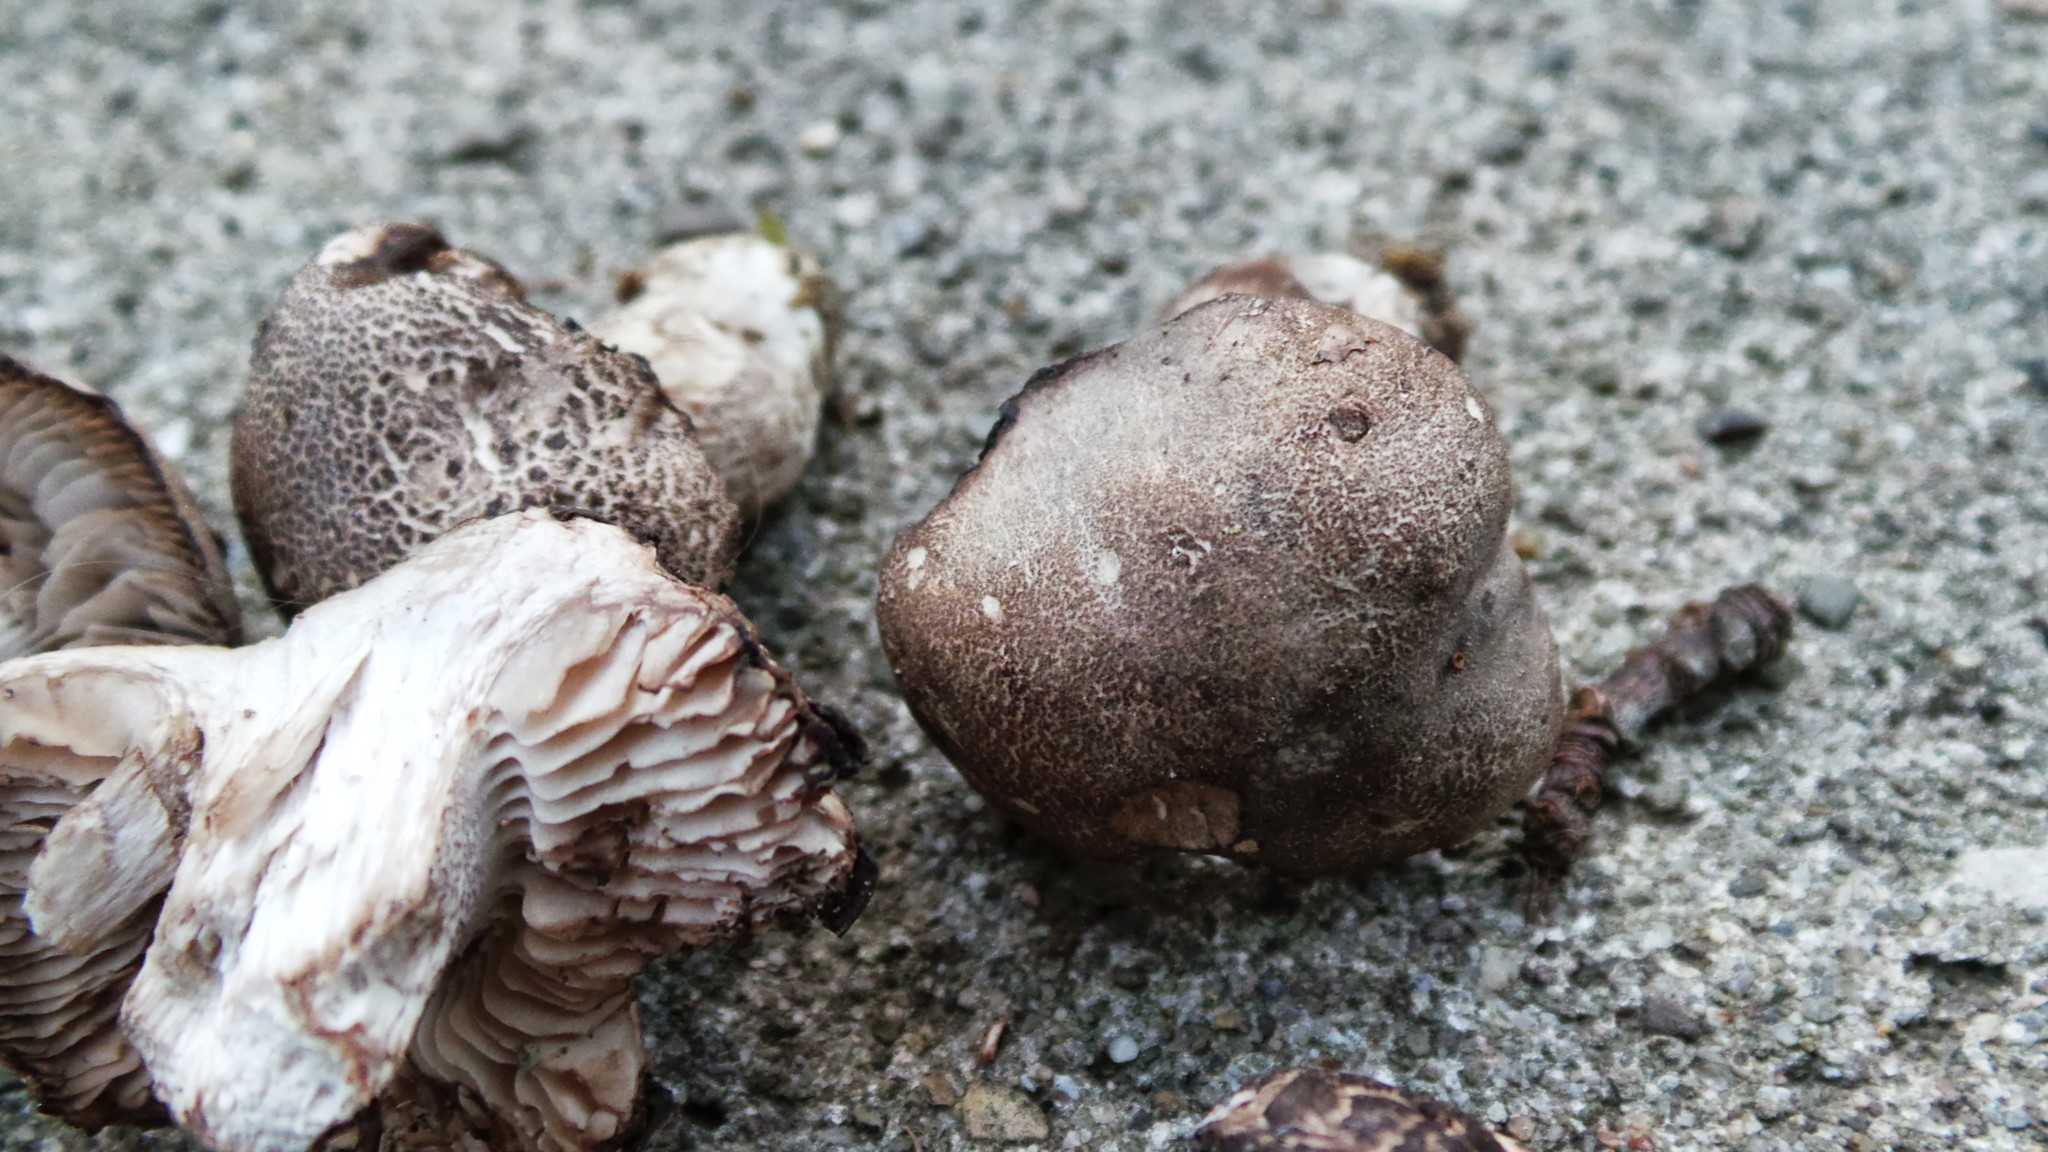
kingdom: Fungi
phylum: Basidiomycota
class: Agaricomycetes
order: Agaricales
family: Tricholomataceae
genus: Pseudotricholoma
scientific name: Pseudotricholoma umbrosum
